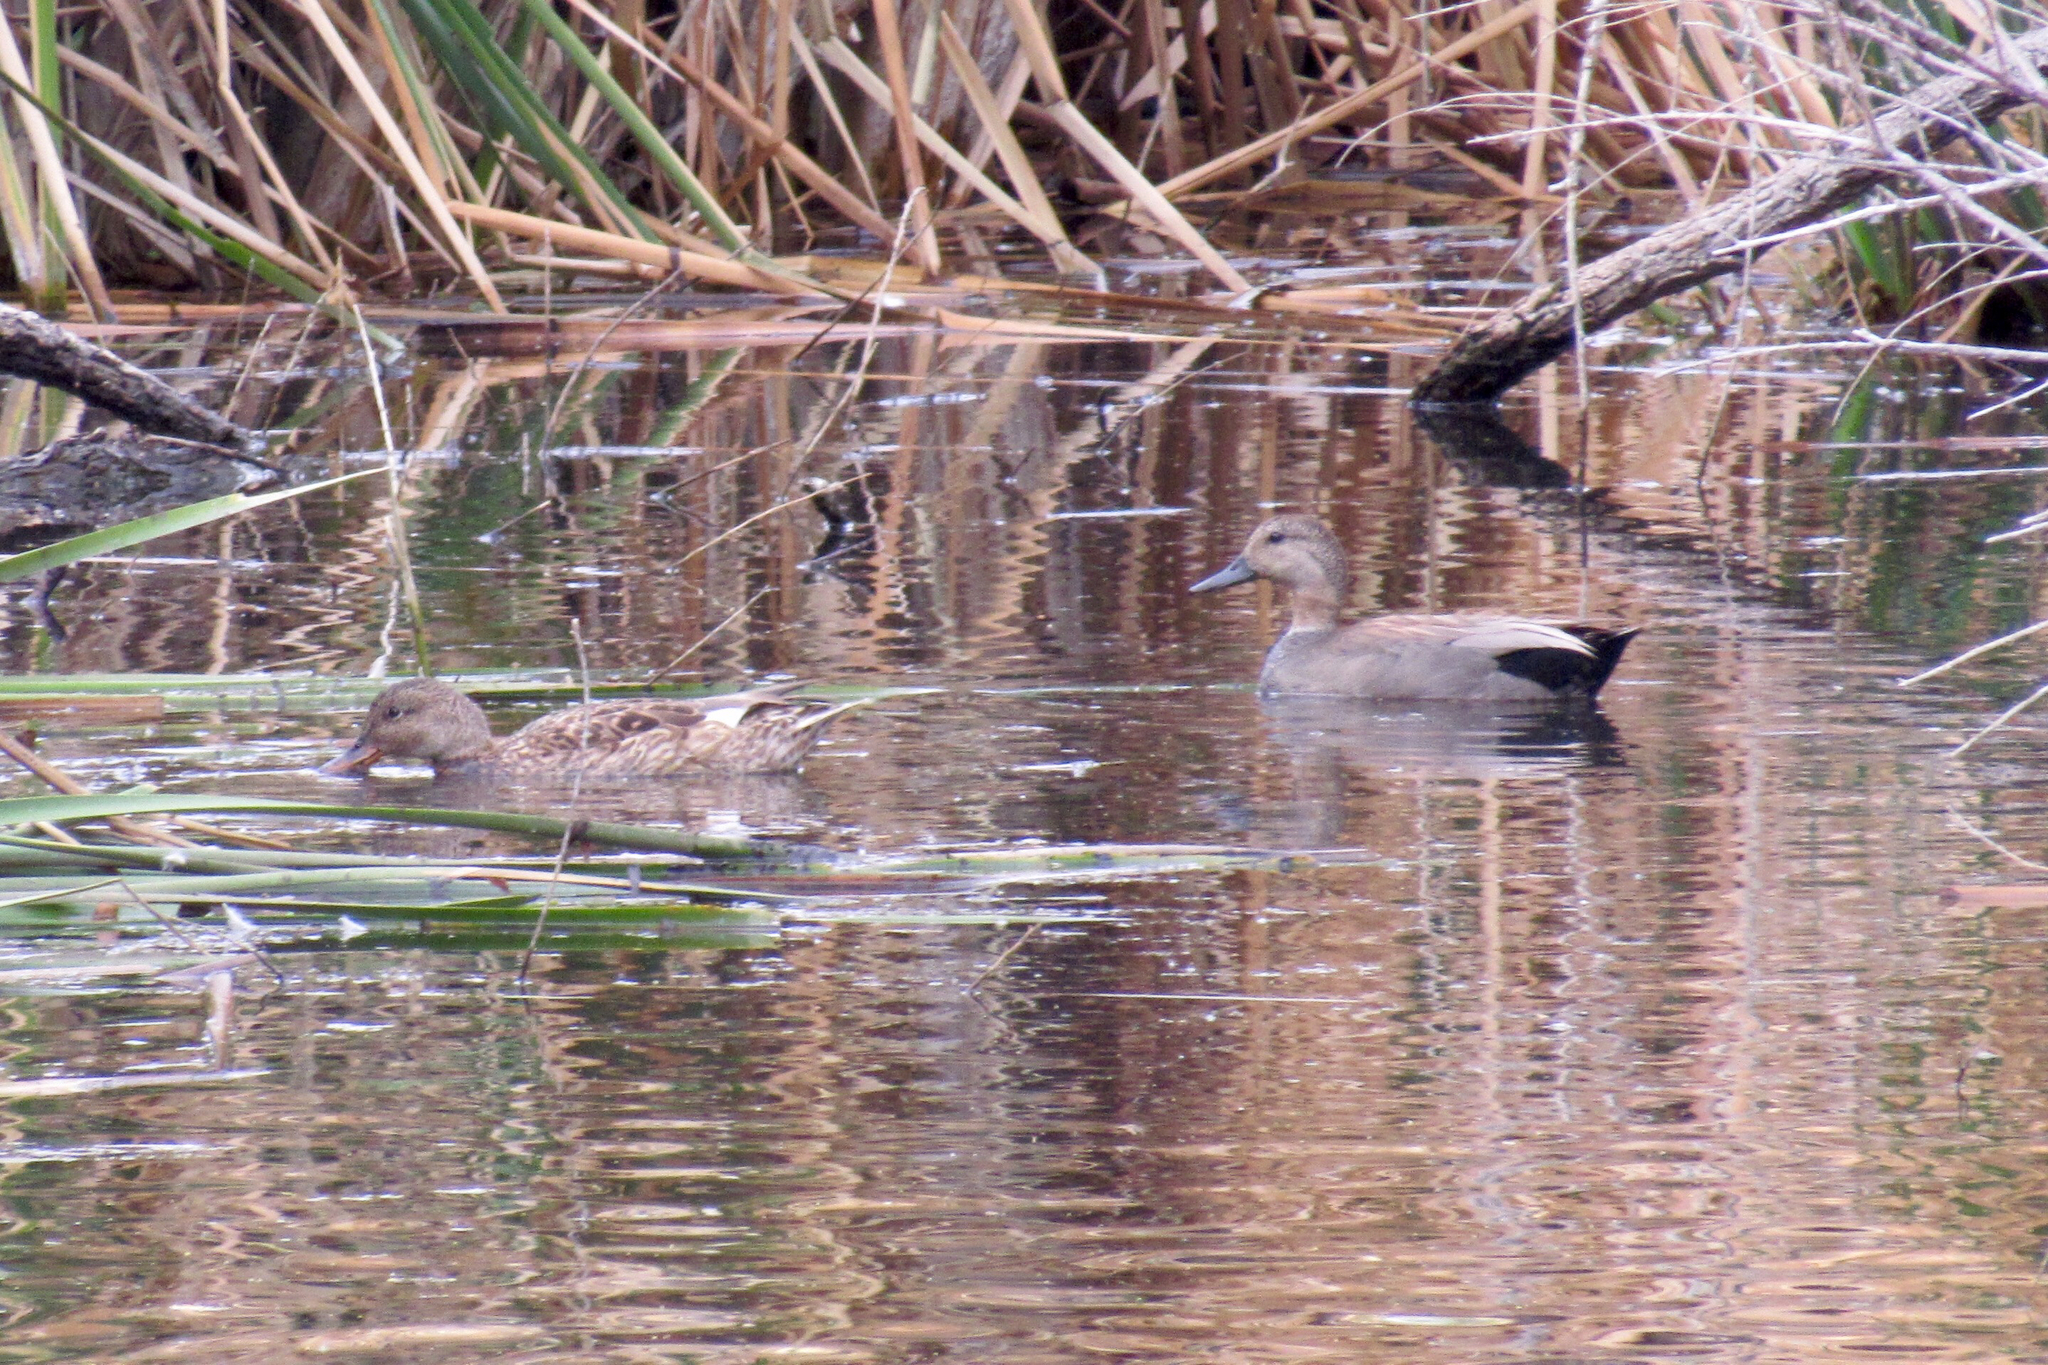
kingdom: Animalia
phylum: Chordata
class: Aves
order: Anseriformes
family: Anatidae
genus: Mareca
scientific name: Mareca strepera
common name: Gadwall
